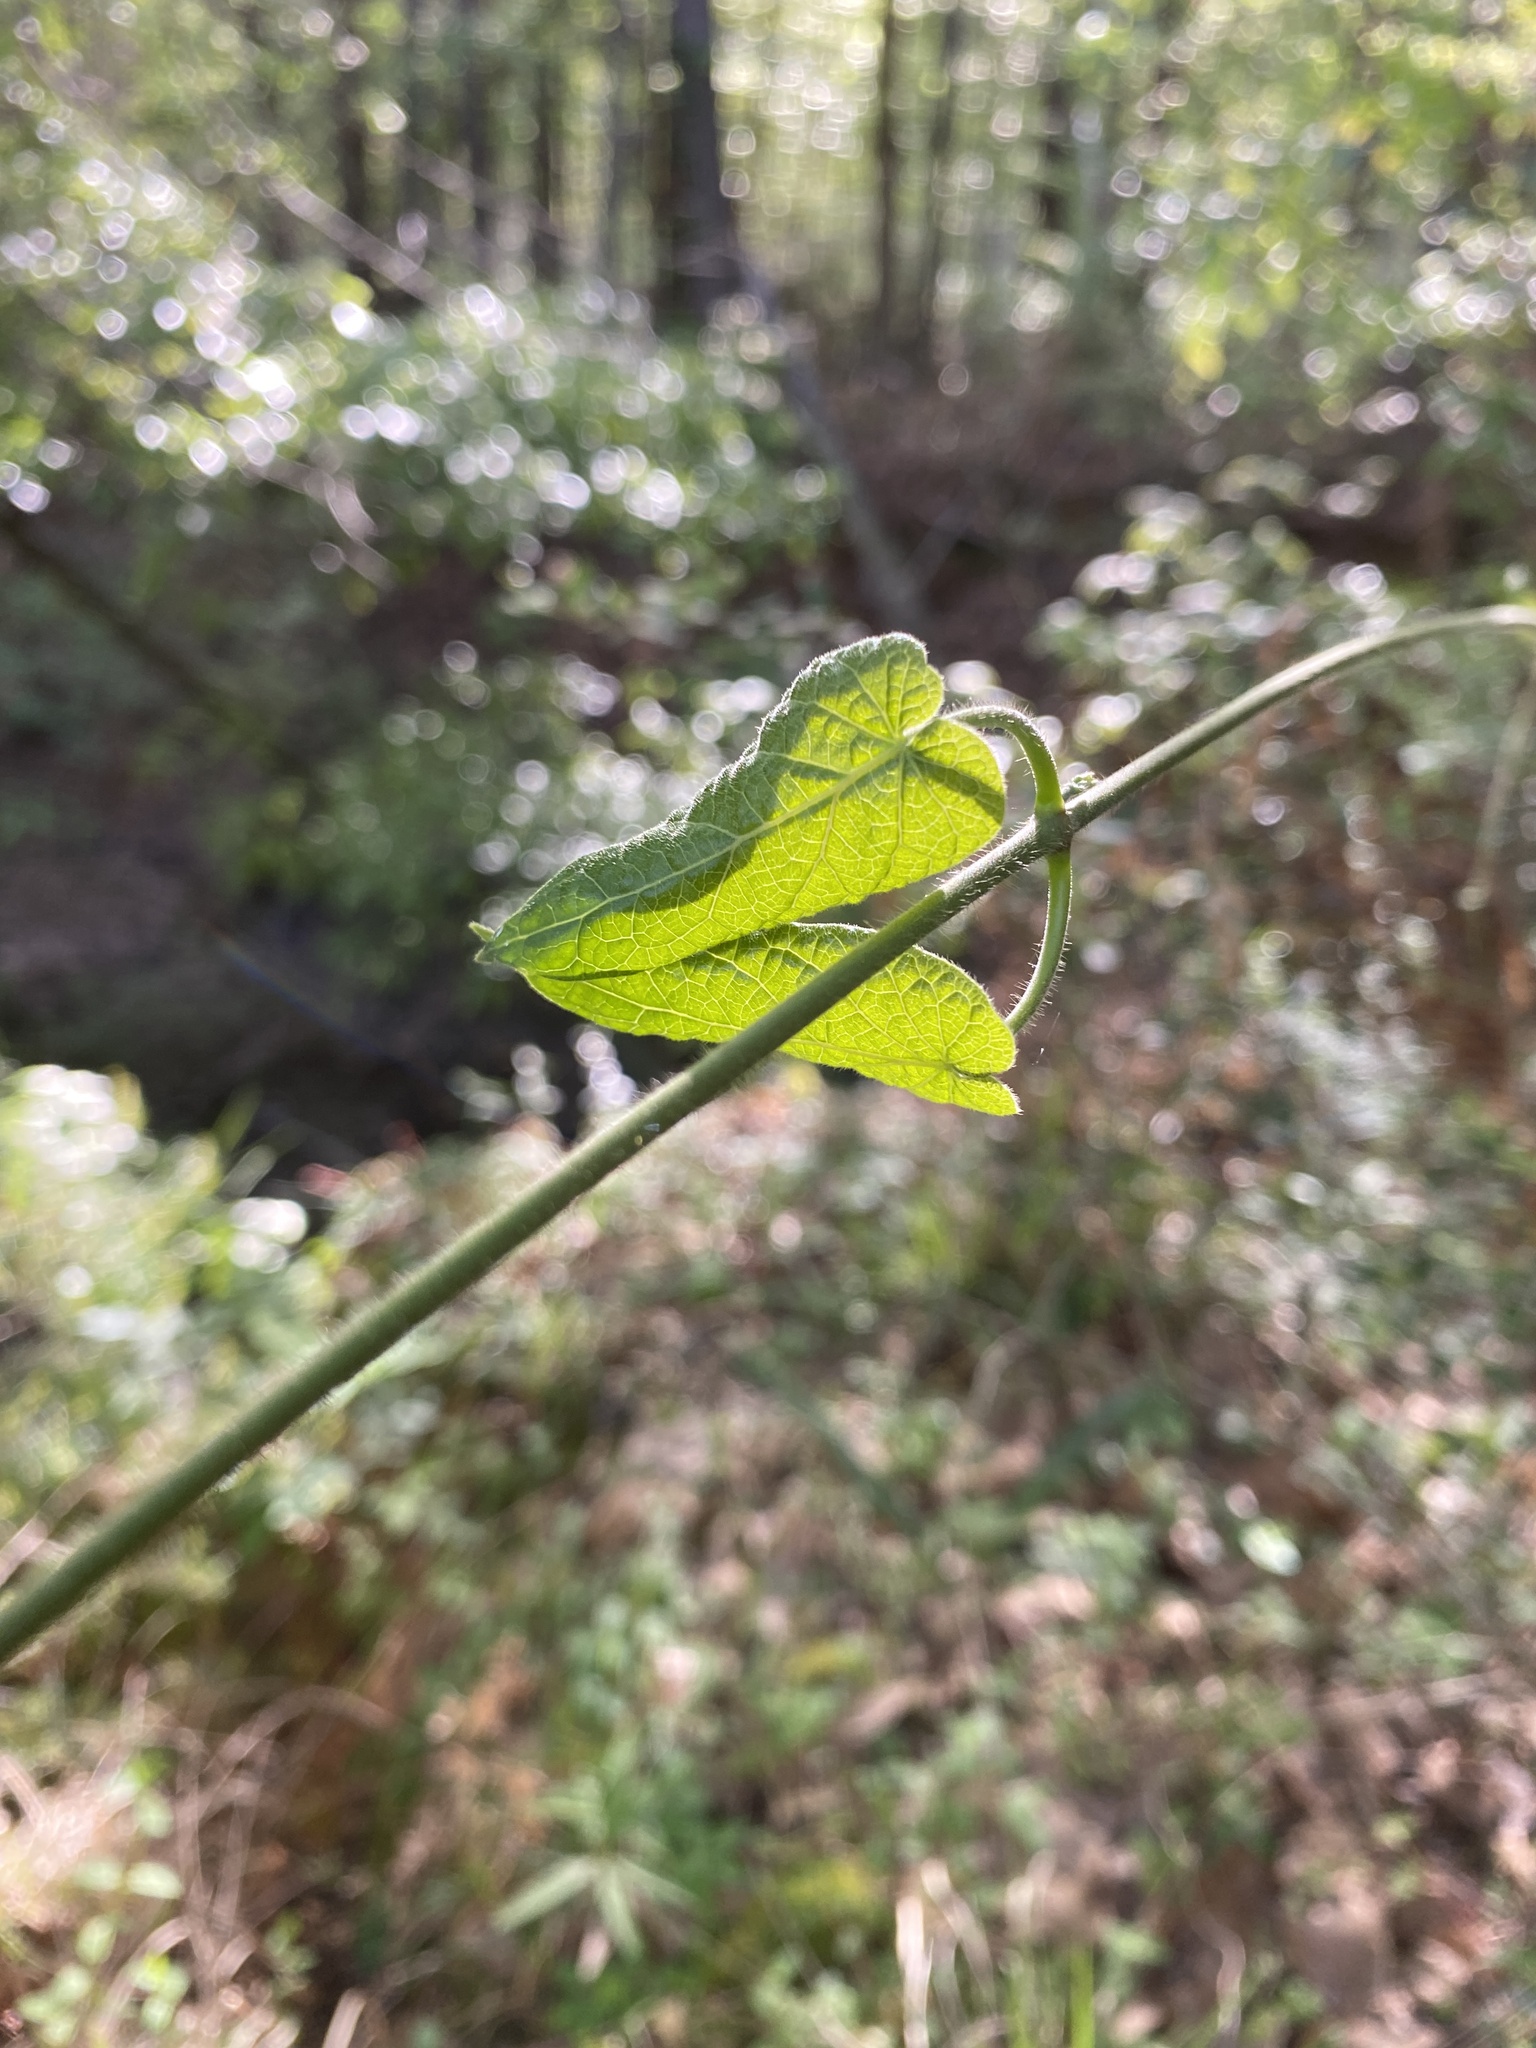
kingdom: Plantae
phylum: Tracheophyta
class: Magnoliopsida
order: Gentianales
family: Apocynaceae
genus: Gonolobus
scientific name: Gonolobus suberosus
